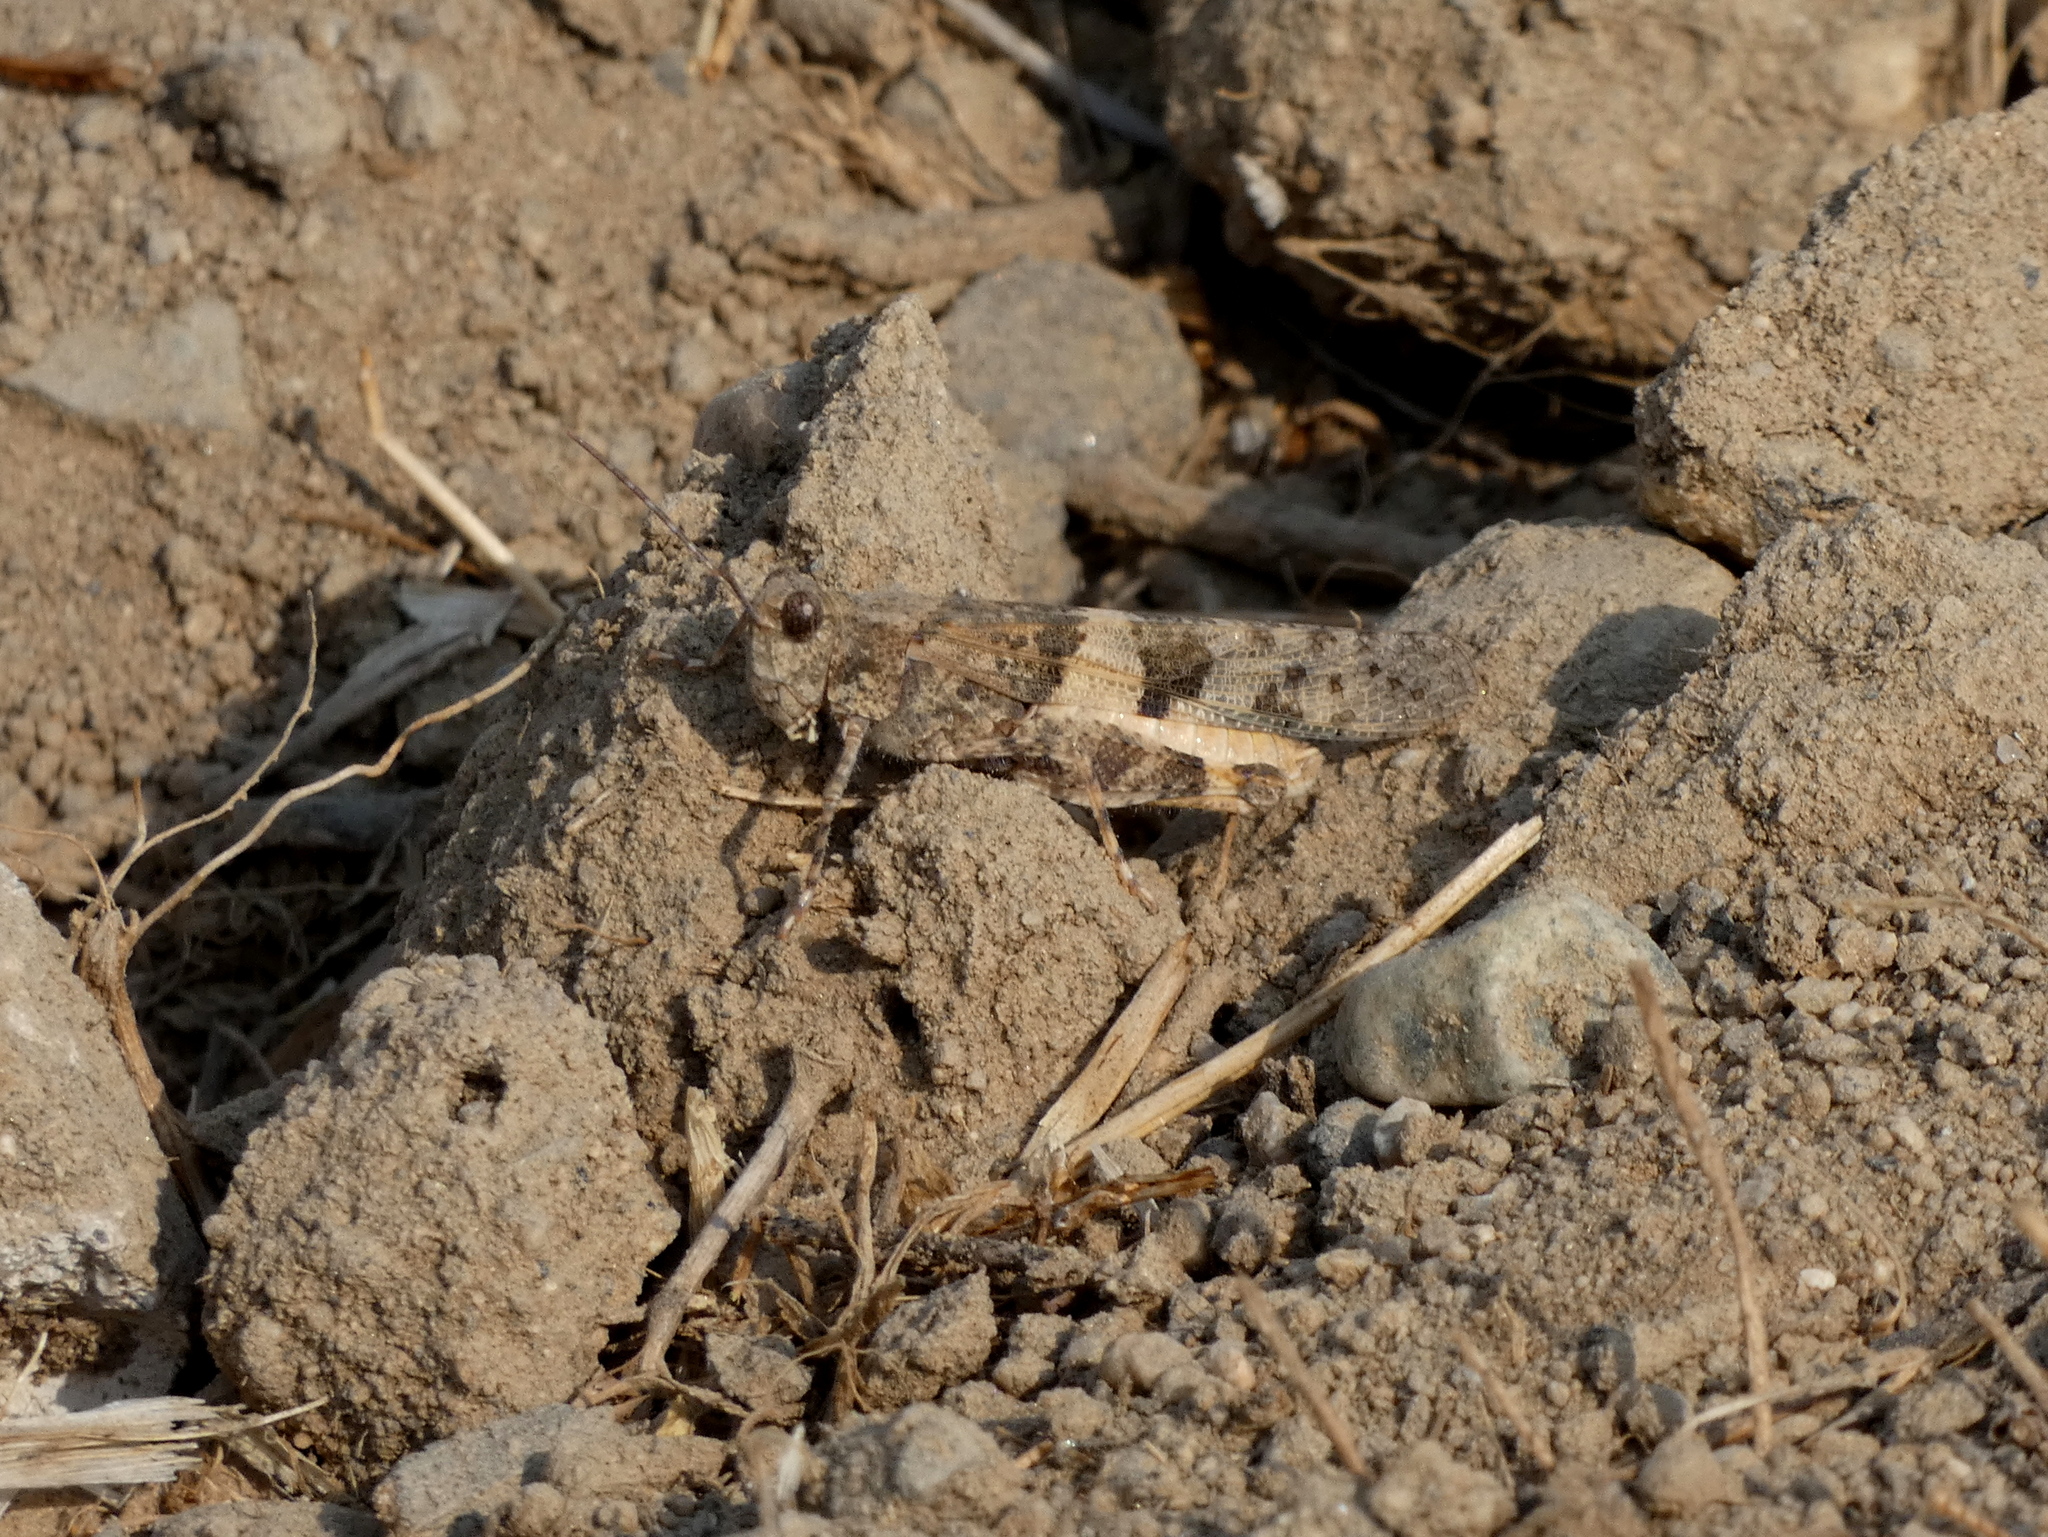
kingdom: Animalia
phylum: Arthropoda
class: Insecta
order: Orthoptera
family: Acrididae
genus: Trimerotropis
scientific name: Trimerotropis pallidipennis
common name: Pallid-winged grasshopper
